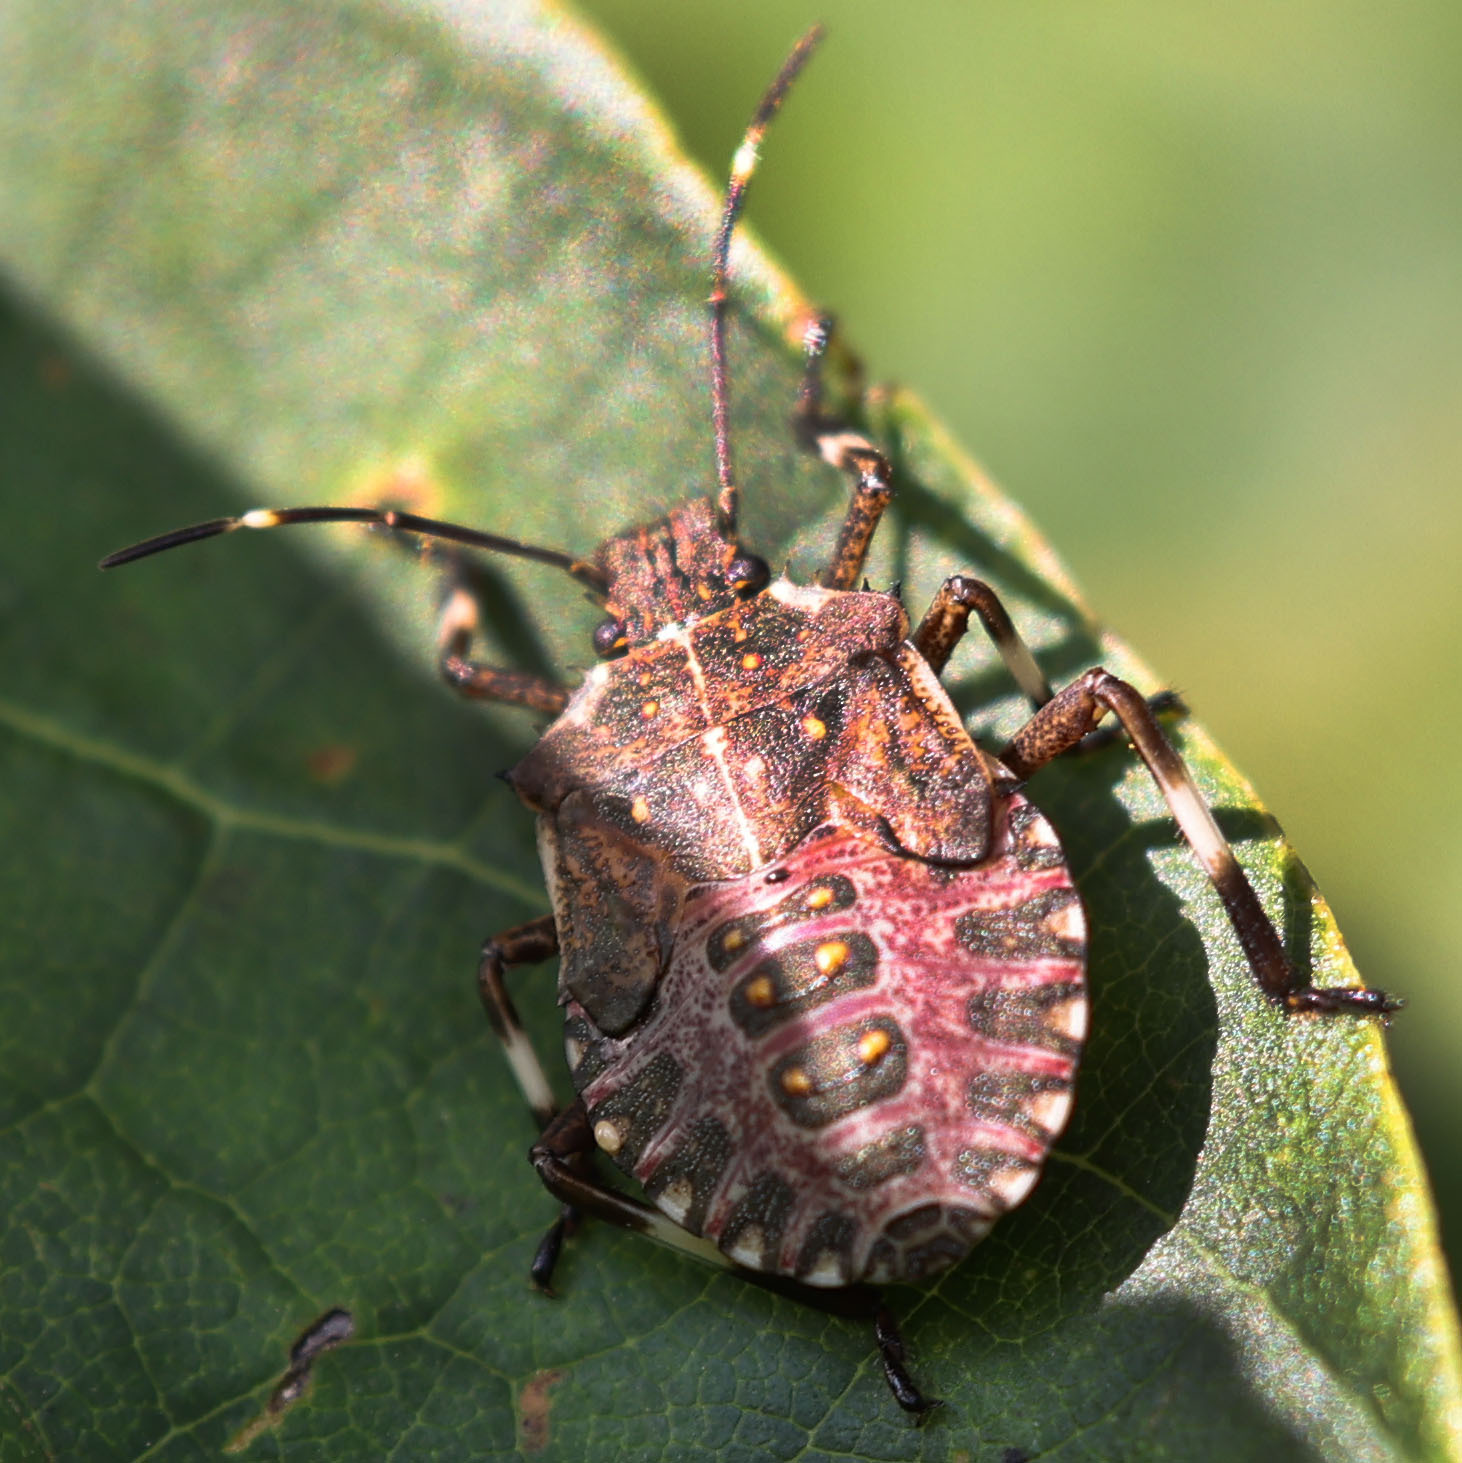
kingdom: Animalia
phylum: Arthropoda
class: Insecta
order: Hemiptera
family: Pentatomidae
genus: Halyomorpha
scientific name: Halyomorpha halys
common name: Brown marmorated stink bug
